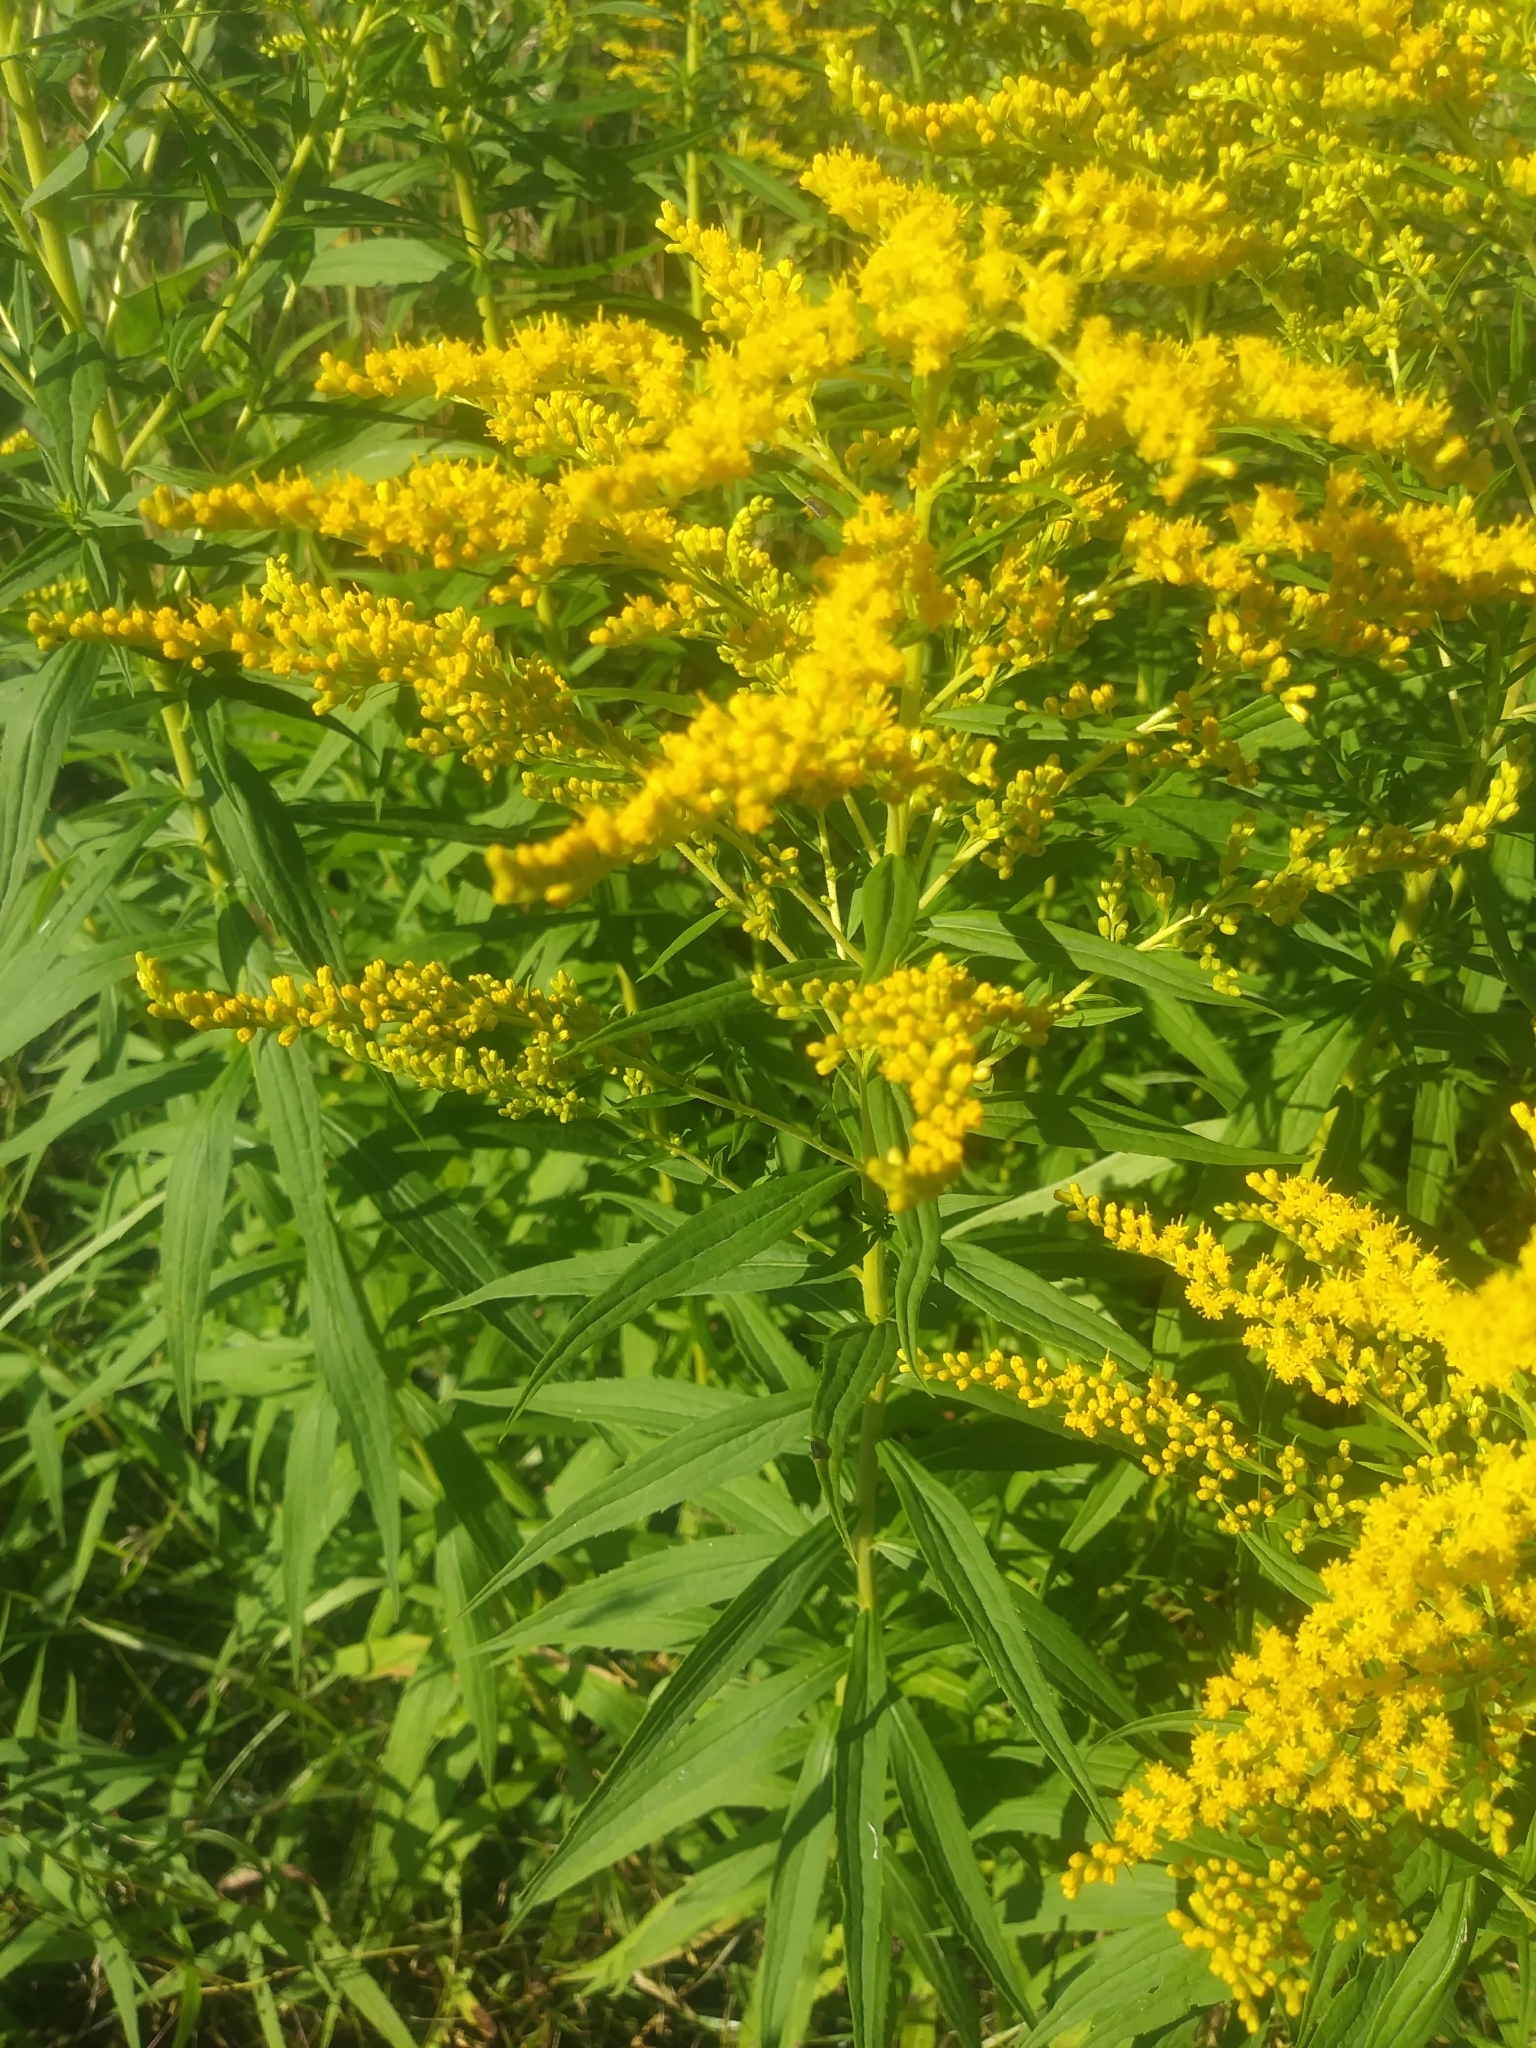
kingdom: Plantae
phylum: Tracheophyta
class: Magnoliopsida
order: Asterales
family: Asteraceae
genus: Solidago
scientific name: Solidago canadensis
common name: Canada goldenrod
